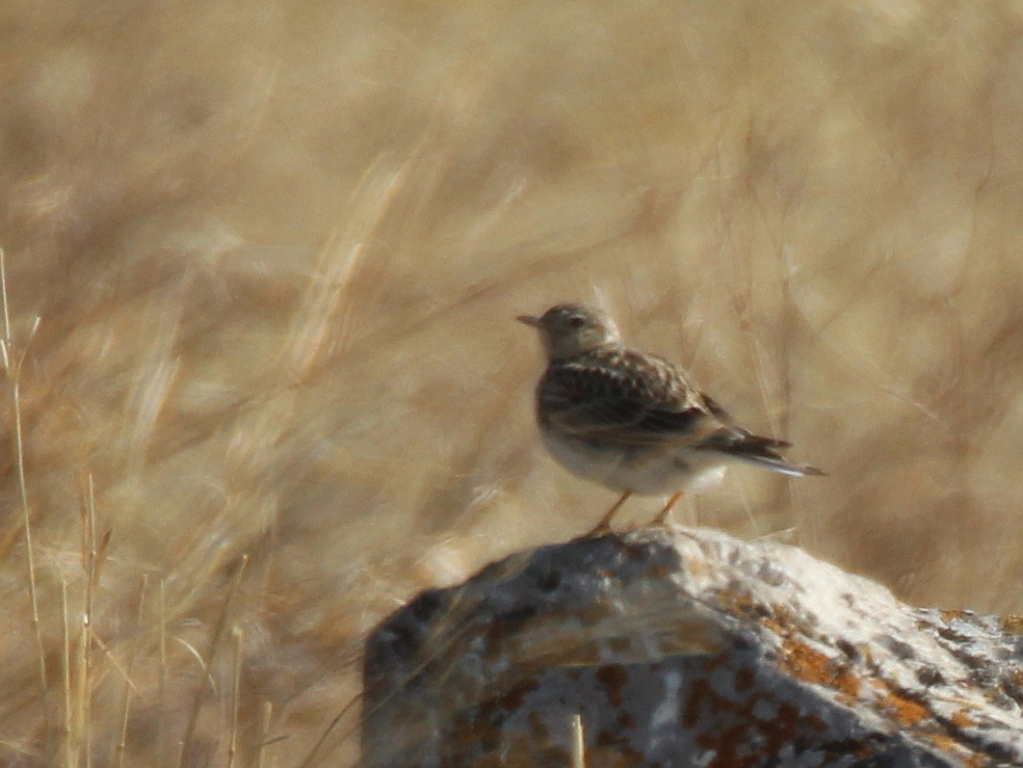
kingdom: Animalia
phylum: Chordata
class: Aves
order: Passeriformes
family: Alaudidae
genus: Alauda
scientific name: Alauda arvensis
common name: Eurasian skylark
